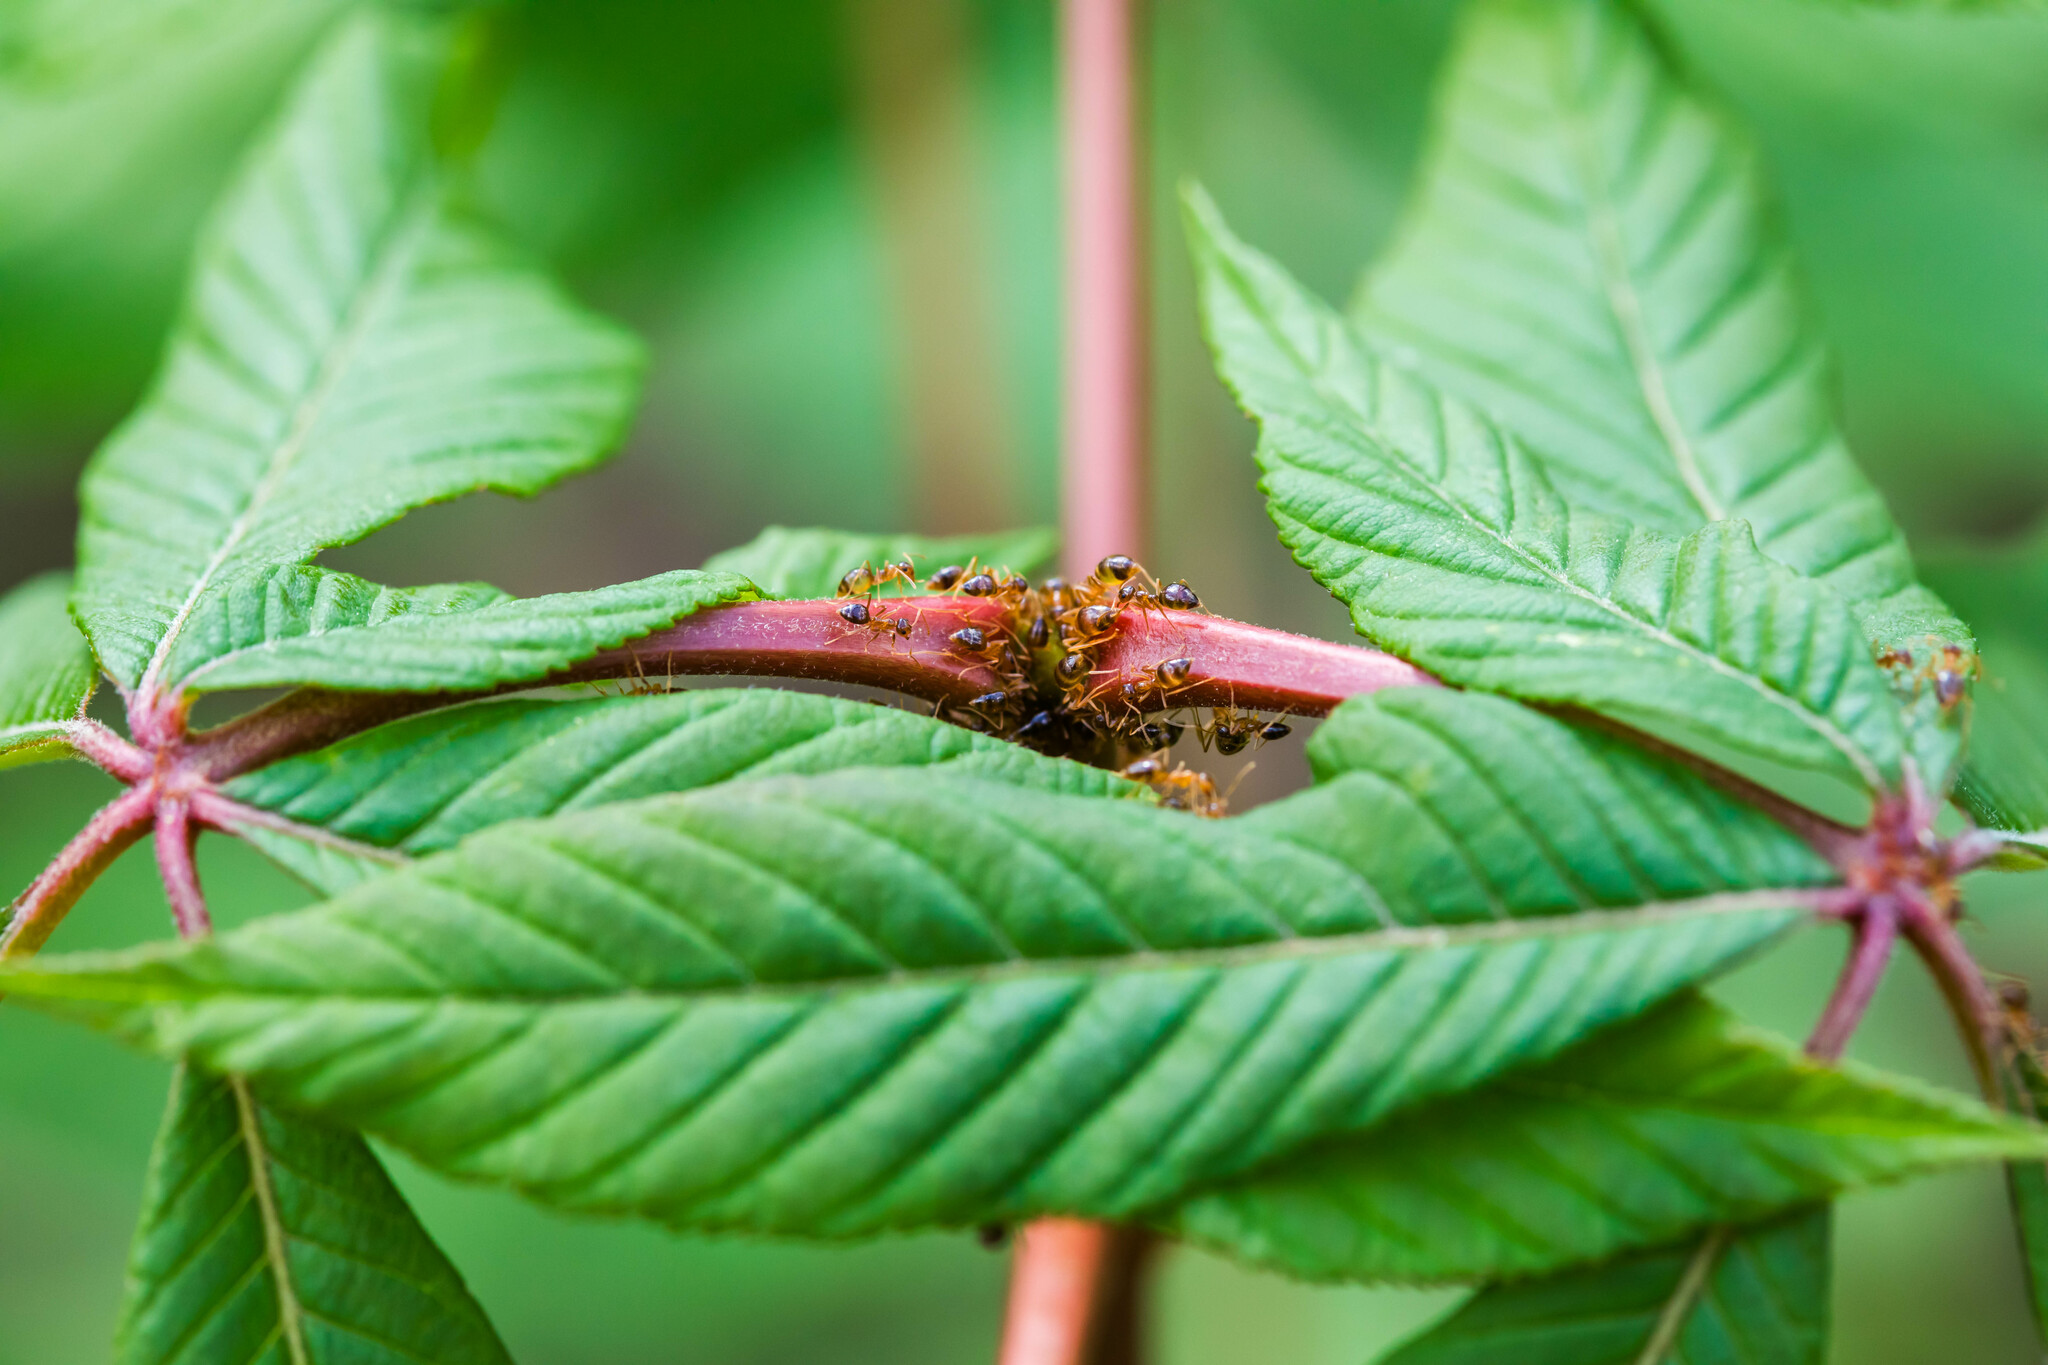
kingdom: Animalia
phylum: Arthropoda
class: Insecta
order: Hymenoptera
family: Formicidae
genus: Prenolepis
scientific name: Prenolepis imparis
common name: Small honey ant
